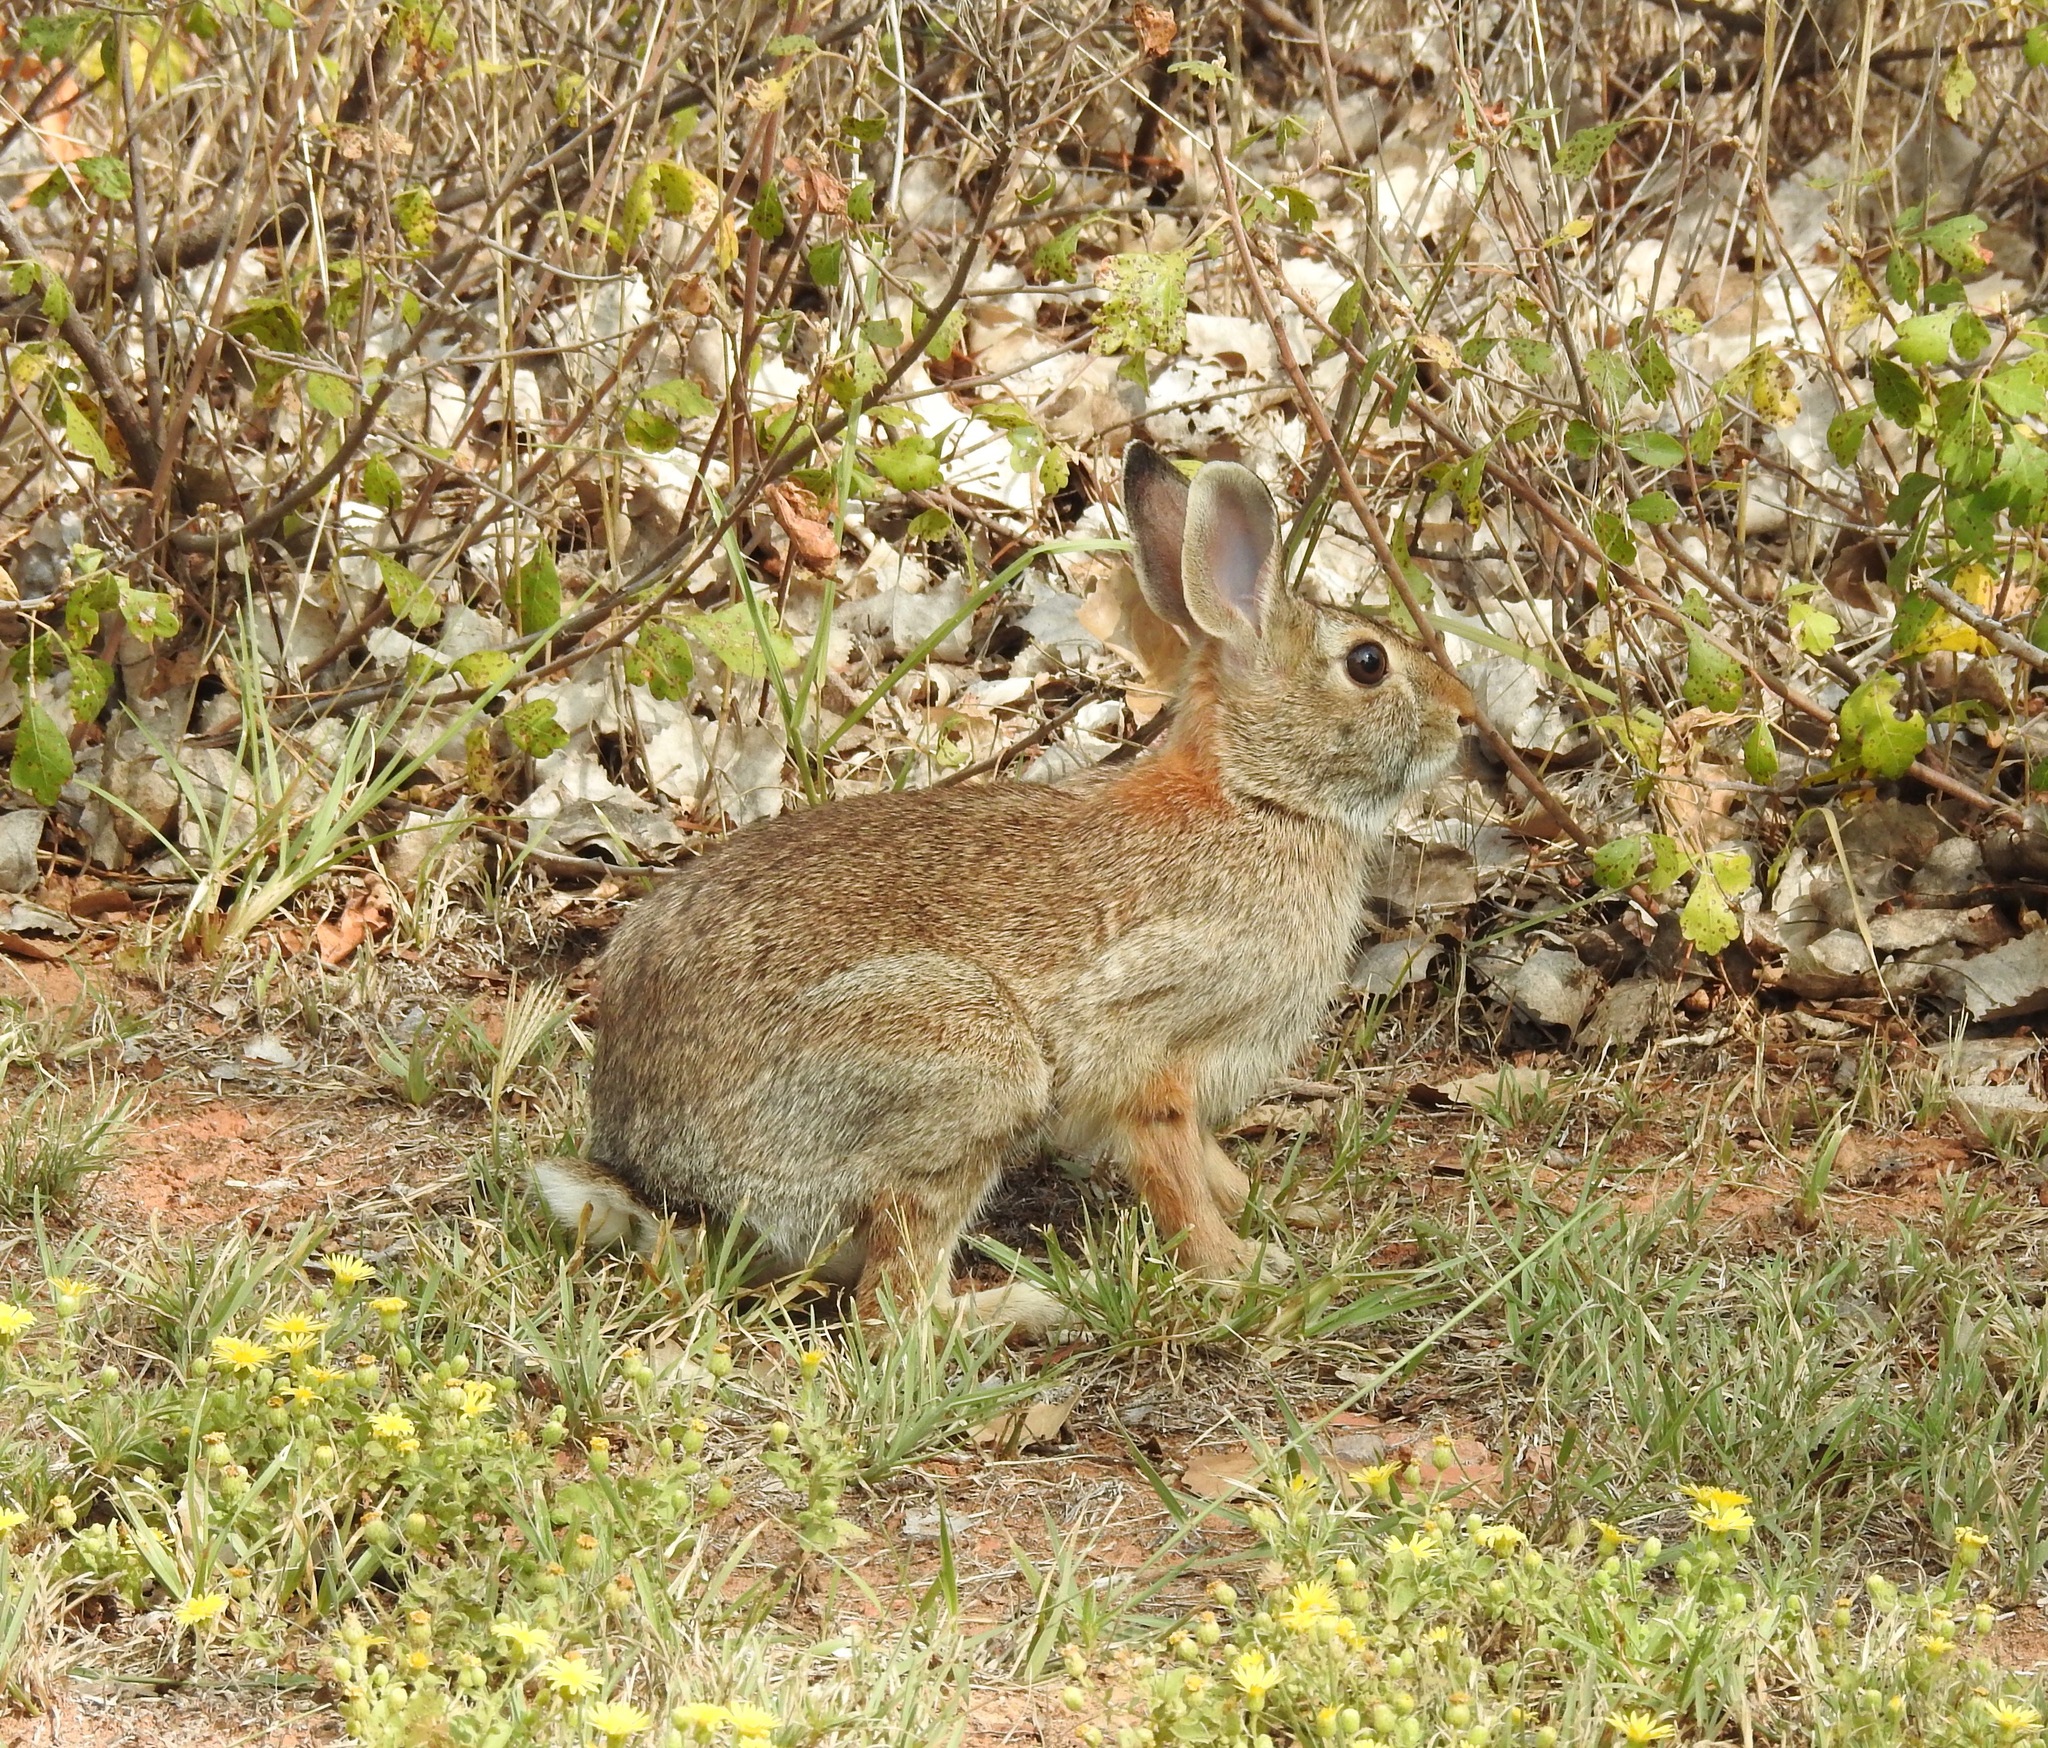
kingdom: Animalia
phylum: Chordata
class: Mammalia
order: Lagomorpha
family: Leporidae
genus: Sylvilagus
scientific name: Sylvilagus floridanus
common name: Eastern cottontail
